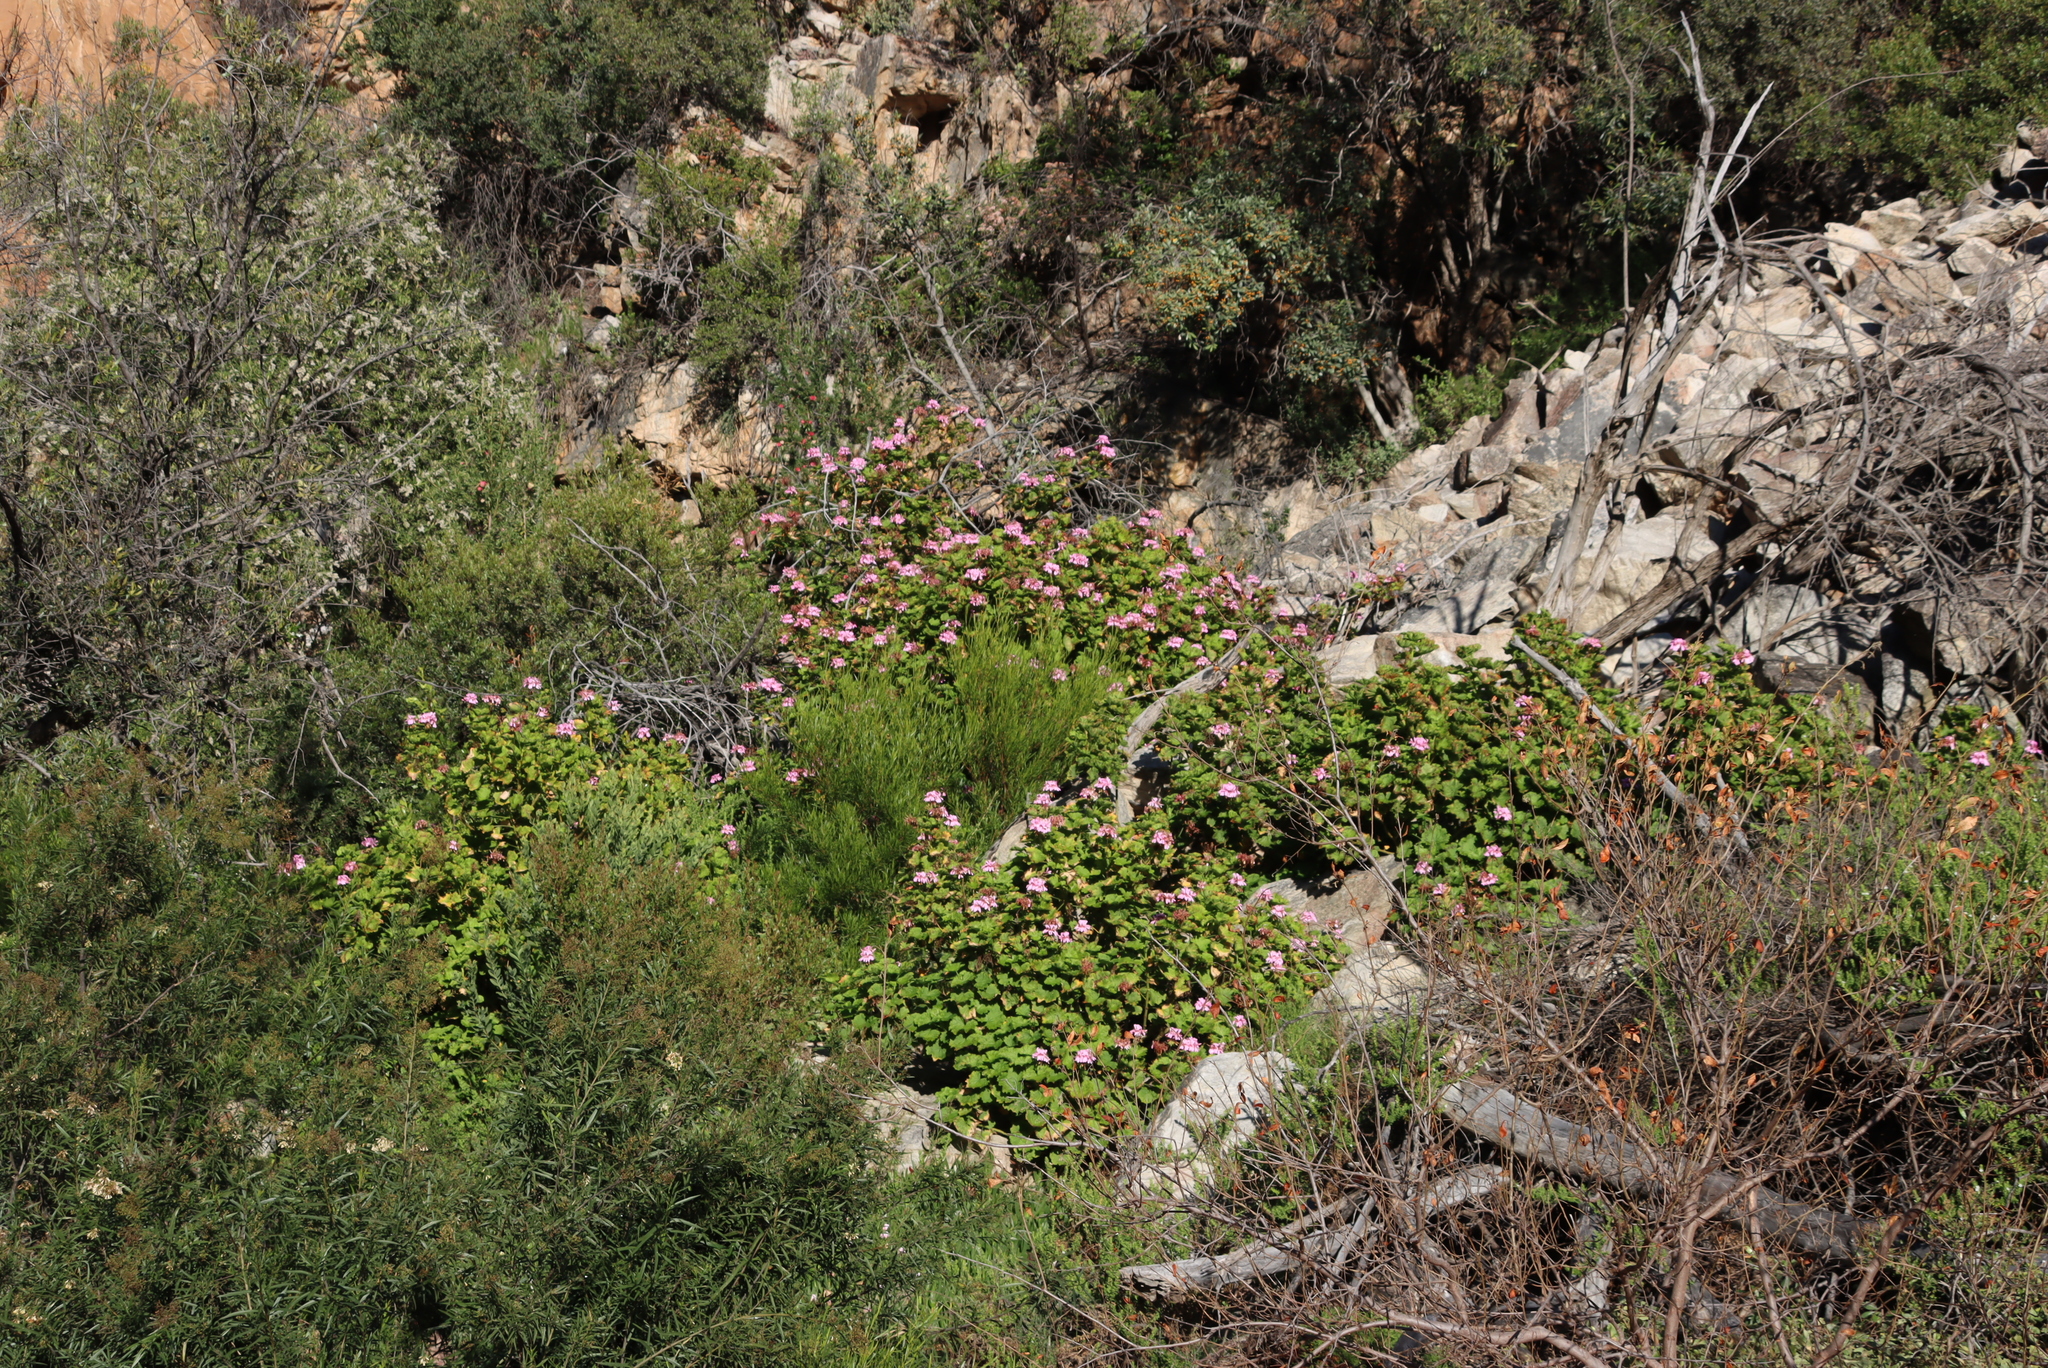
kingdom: Plantae
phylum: Tracheophyta
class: Magnoliopsida
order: Geraniales
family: Geraniaceae
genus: Pelargonium
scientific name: Pelargonium zonale
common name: Horseshoe geranium
